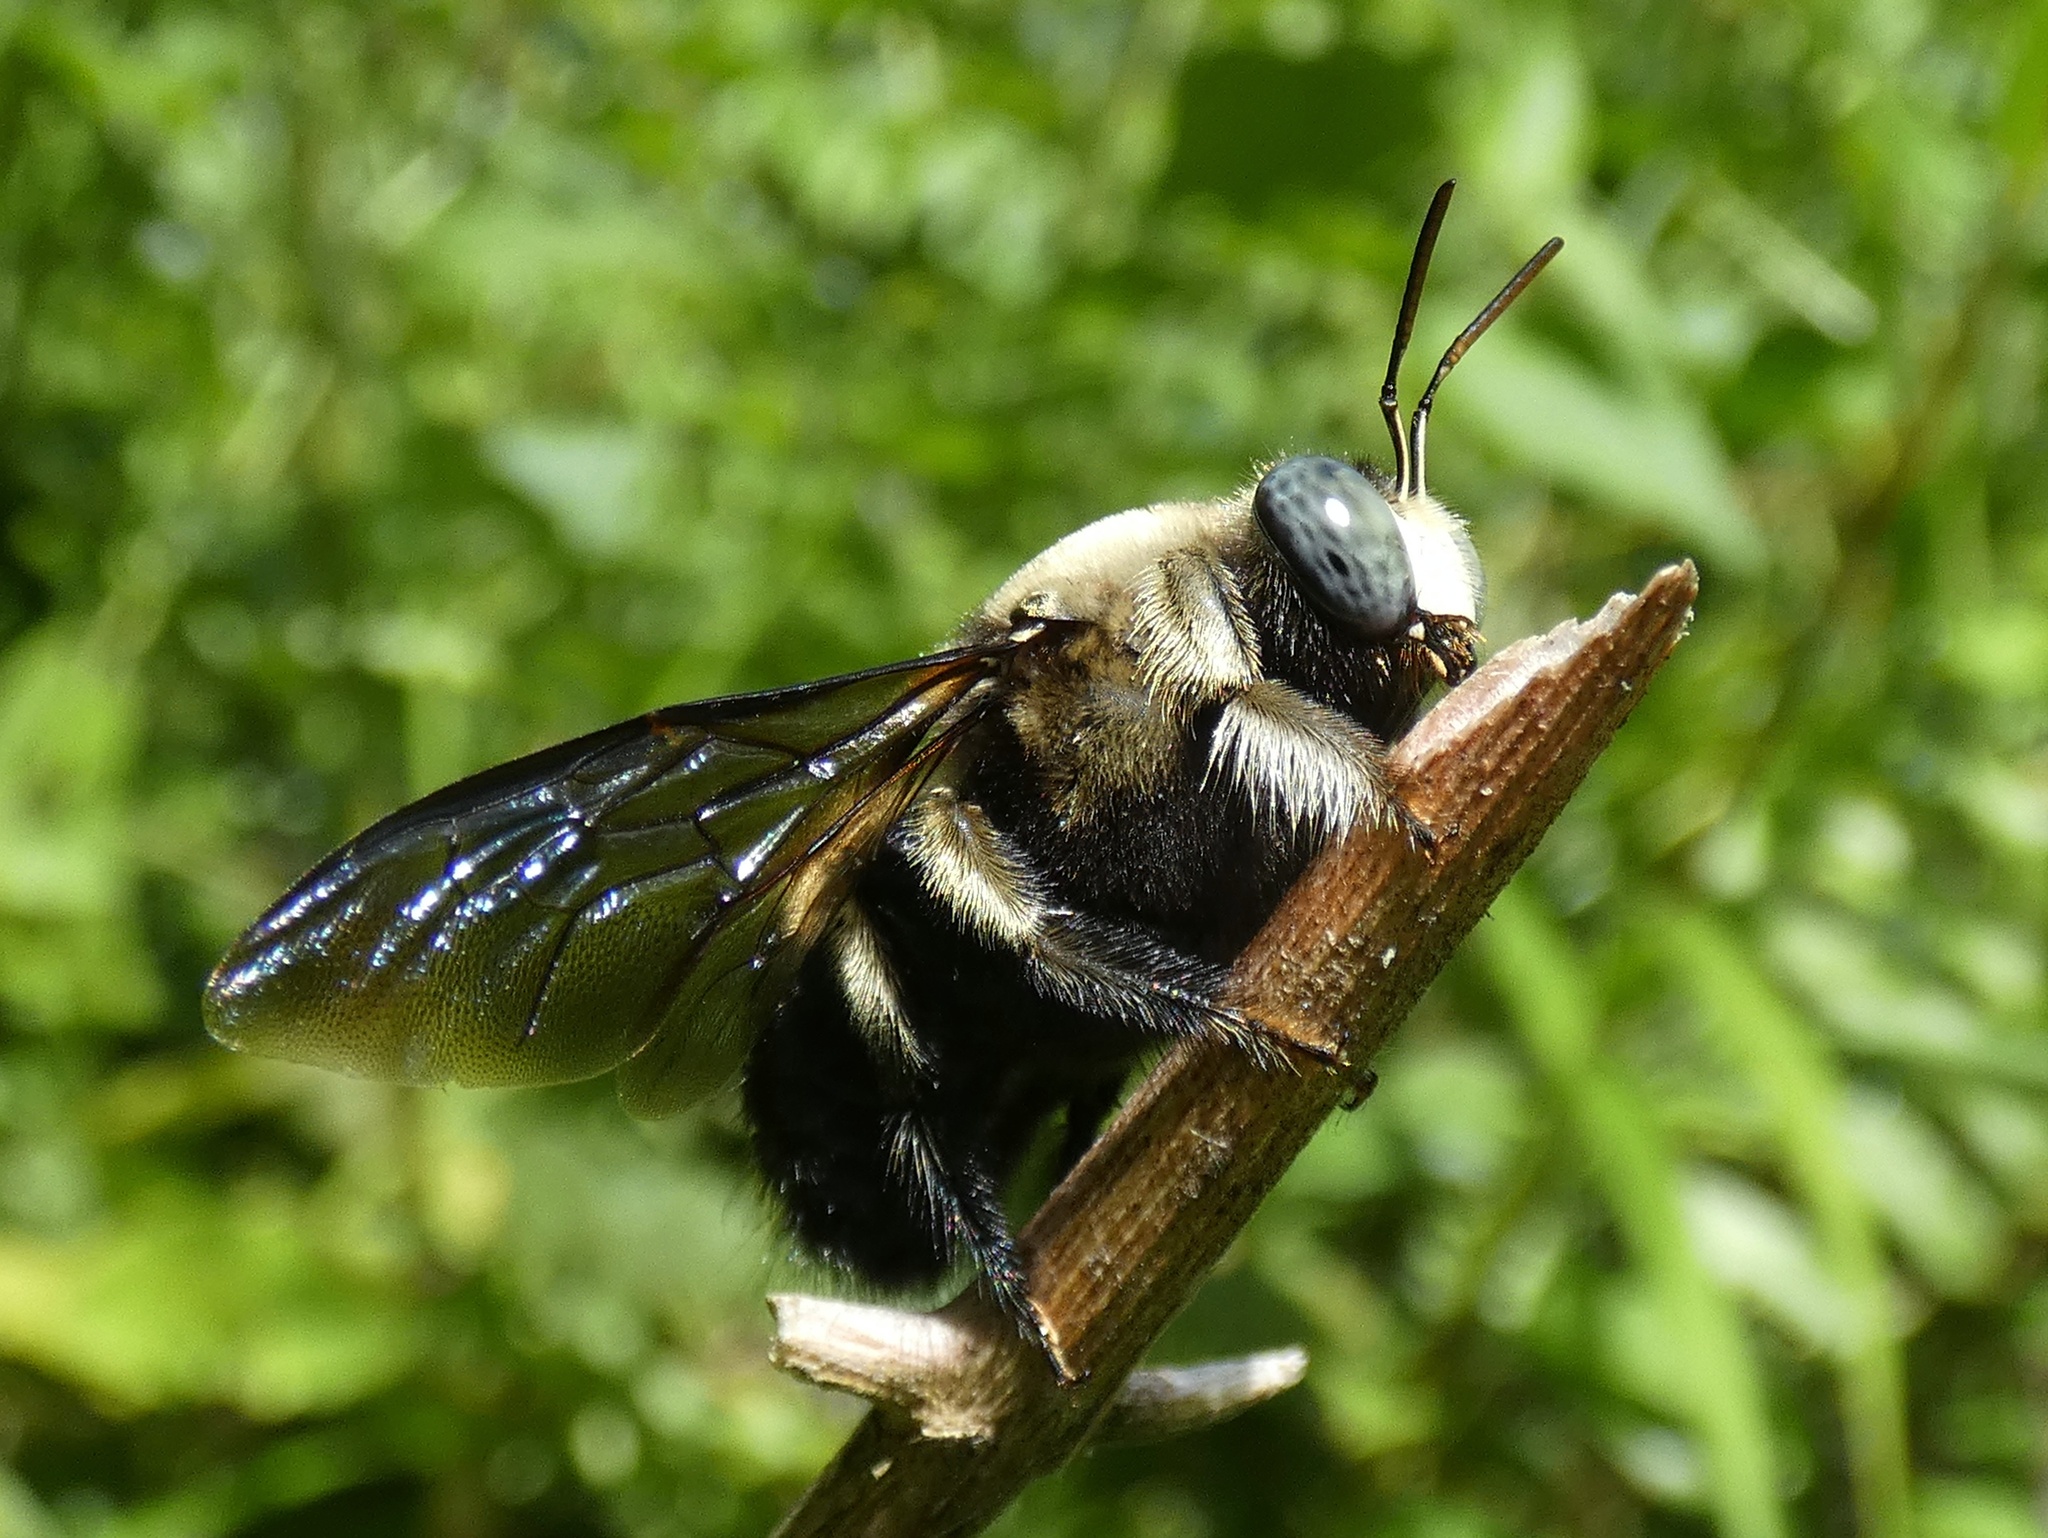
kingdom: Animalia
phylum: Arthropoda
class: Insecta
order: Hymenoptera
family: Apidae
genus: Xylocopa
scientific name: Xylocopa fuliginata
